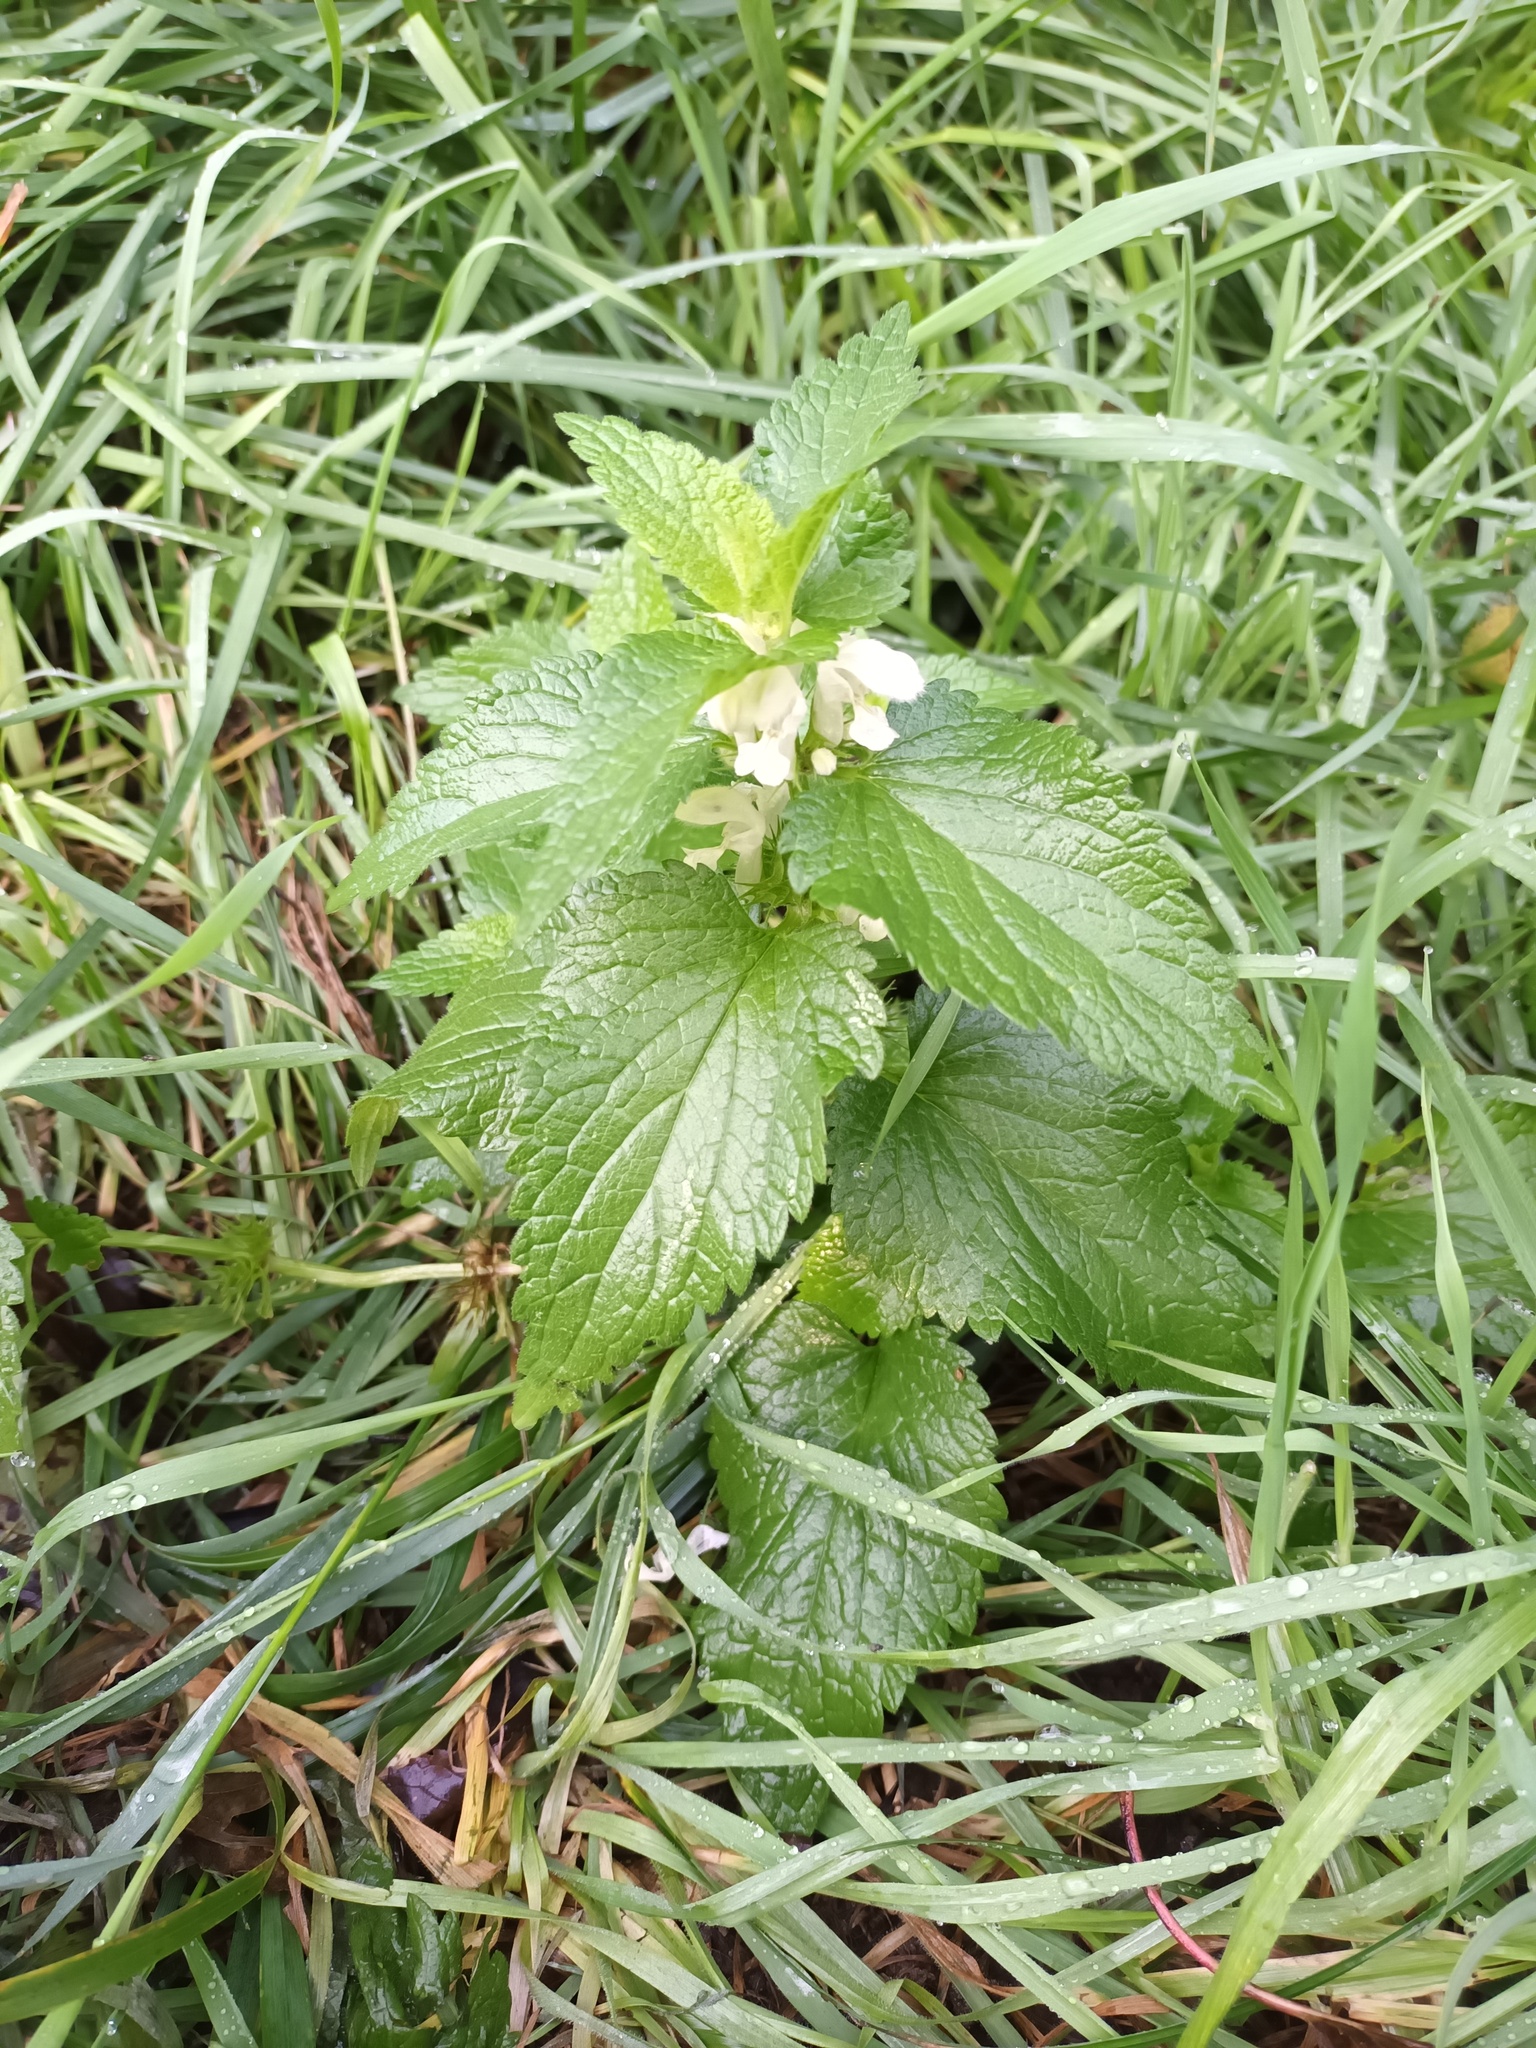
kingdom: Plantae
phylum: Tracheophyta
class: Magnoliopsida
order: Lamiales
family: Lamiaceae
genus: Lamium
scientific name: Lamium album
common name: White dead-nettle
